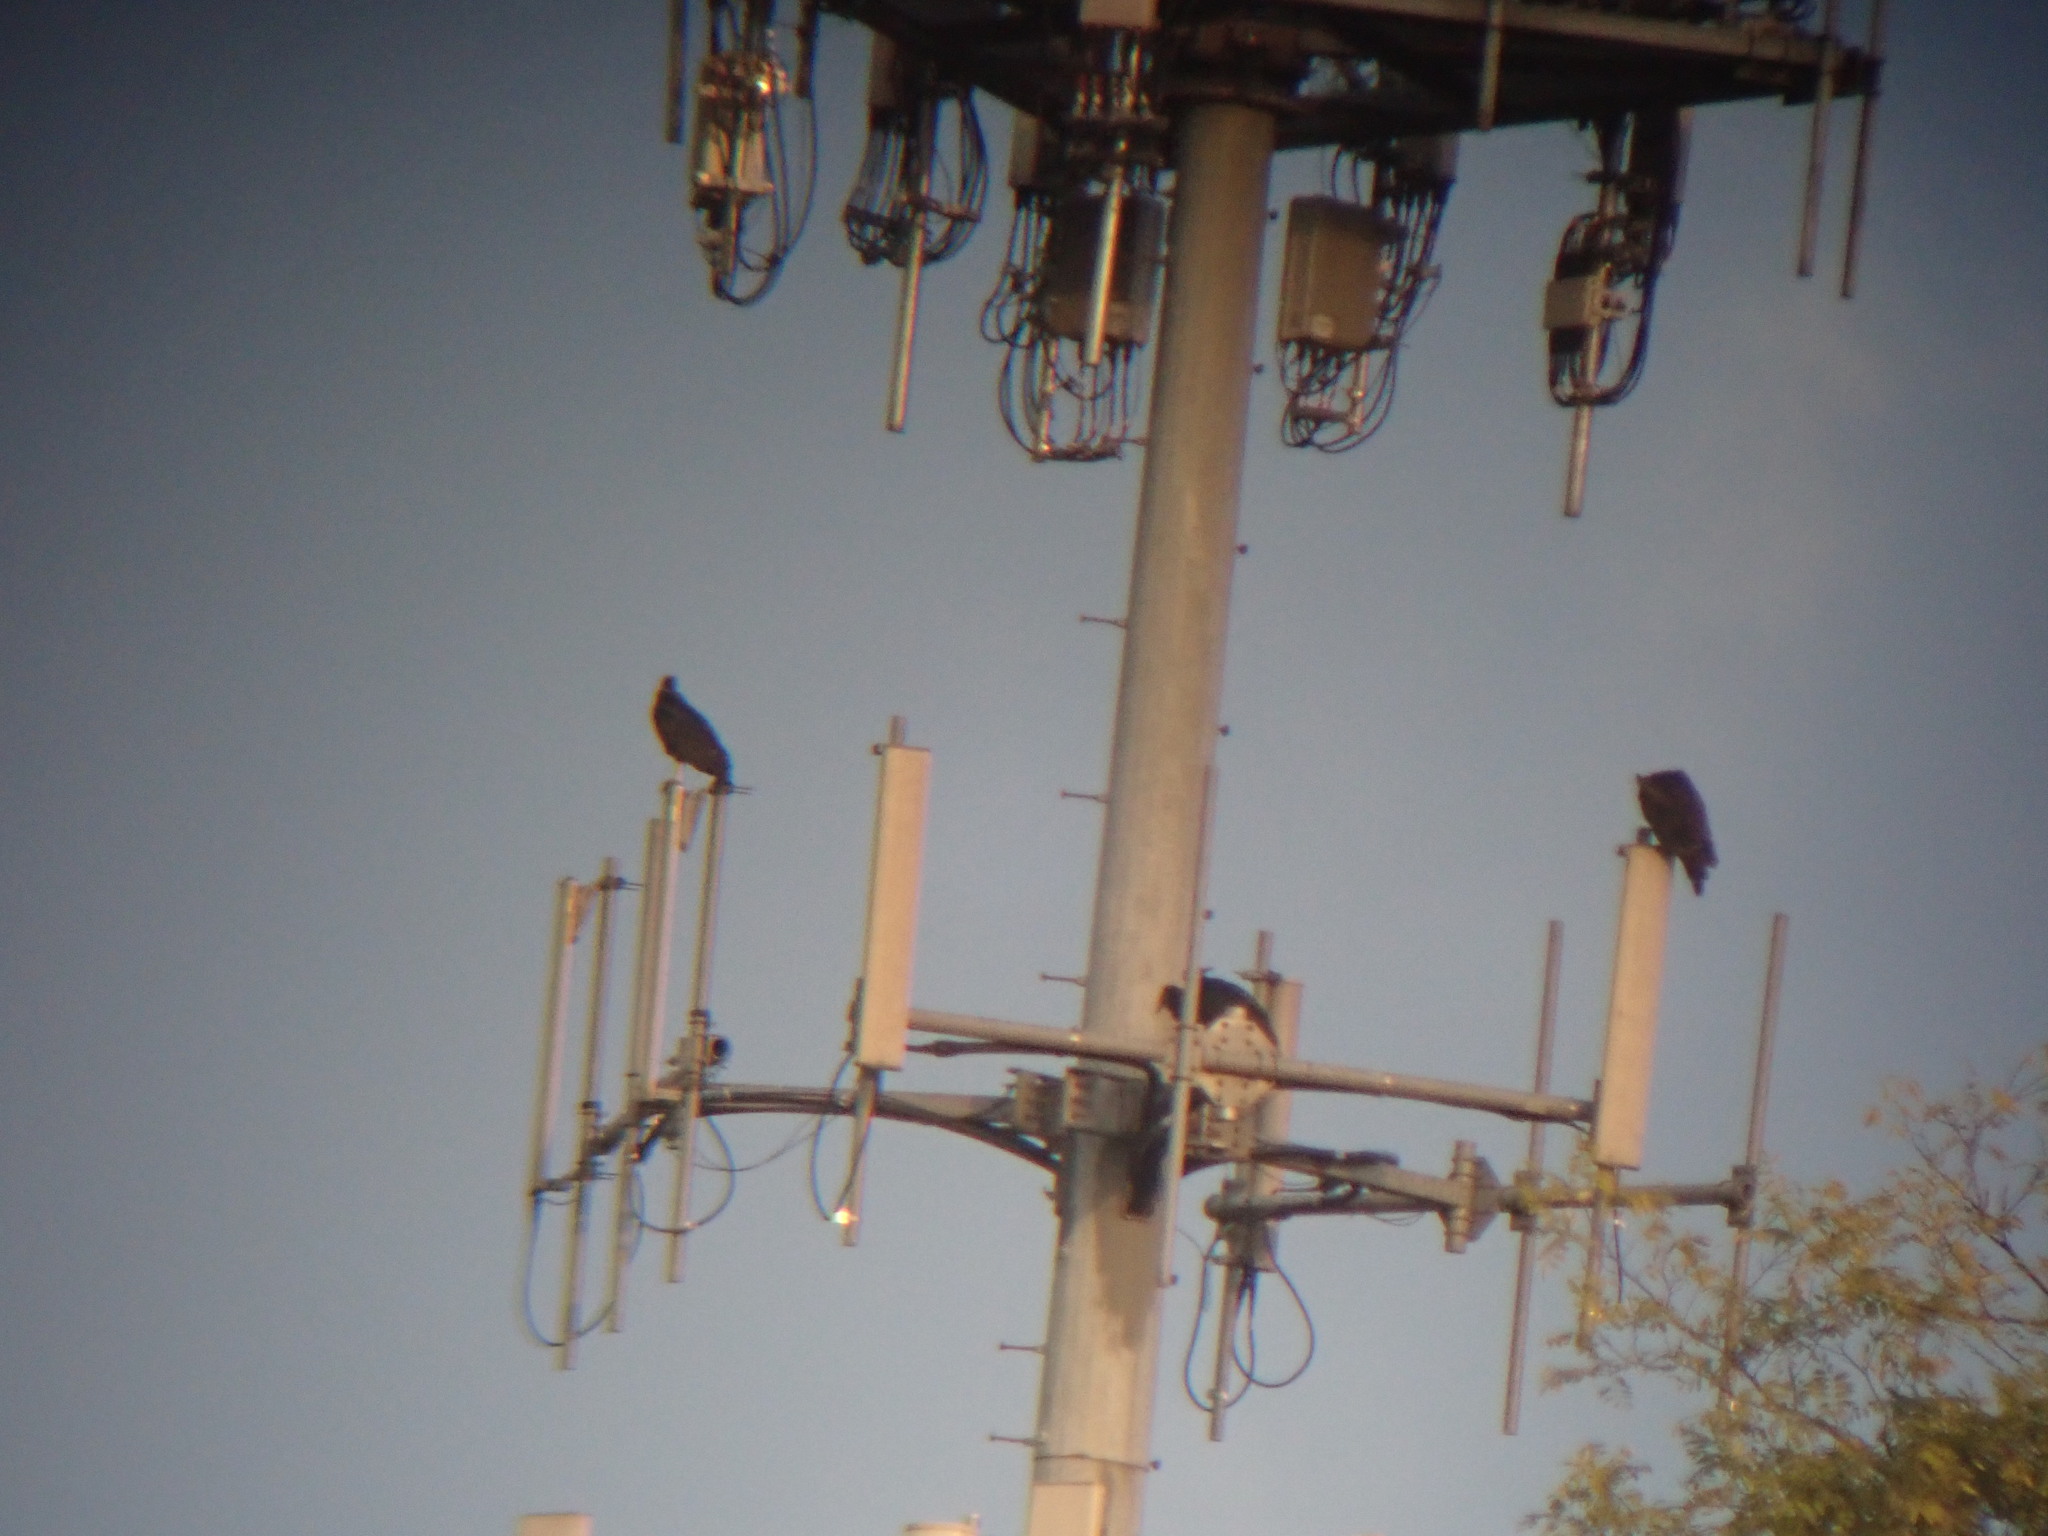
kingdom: Animalia
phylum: Chordata
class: Aves
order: Accipitriformes
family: Cathartidae
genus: Cathartes
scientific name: Cathartes aura
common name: Turkey vulture
